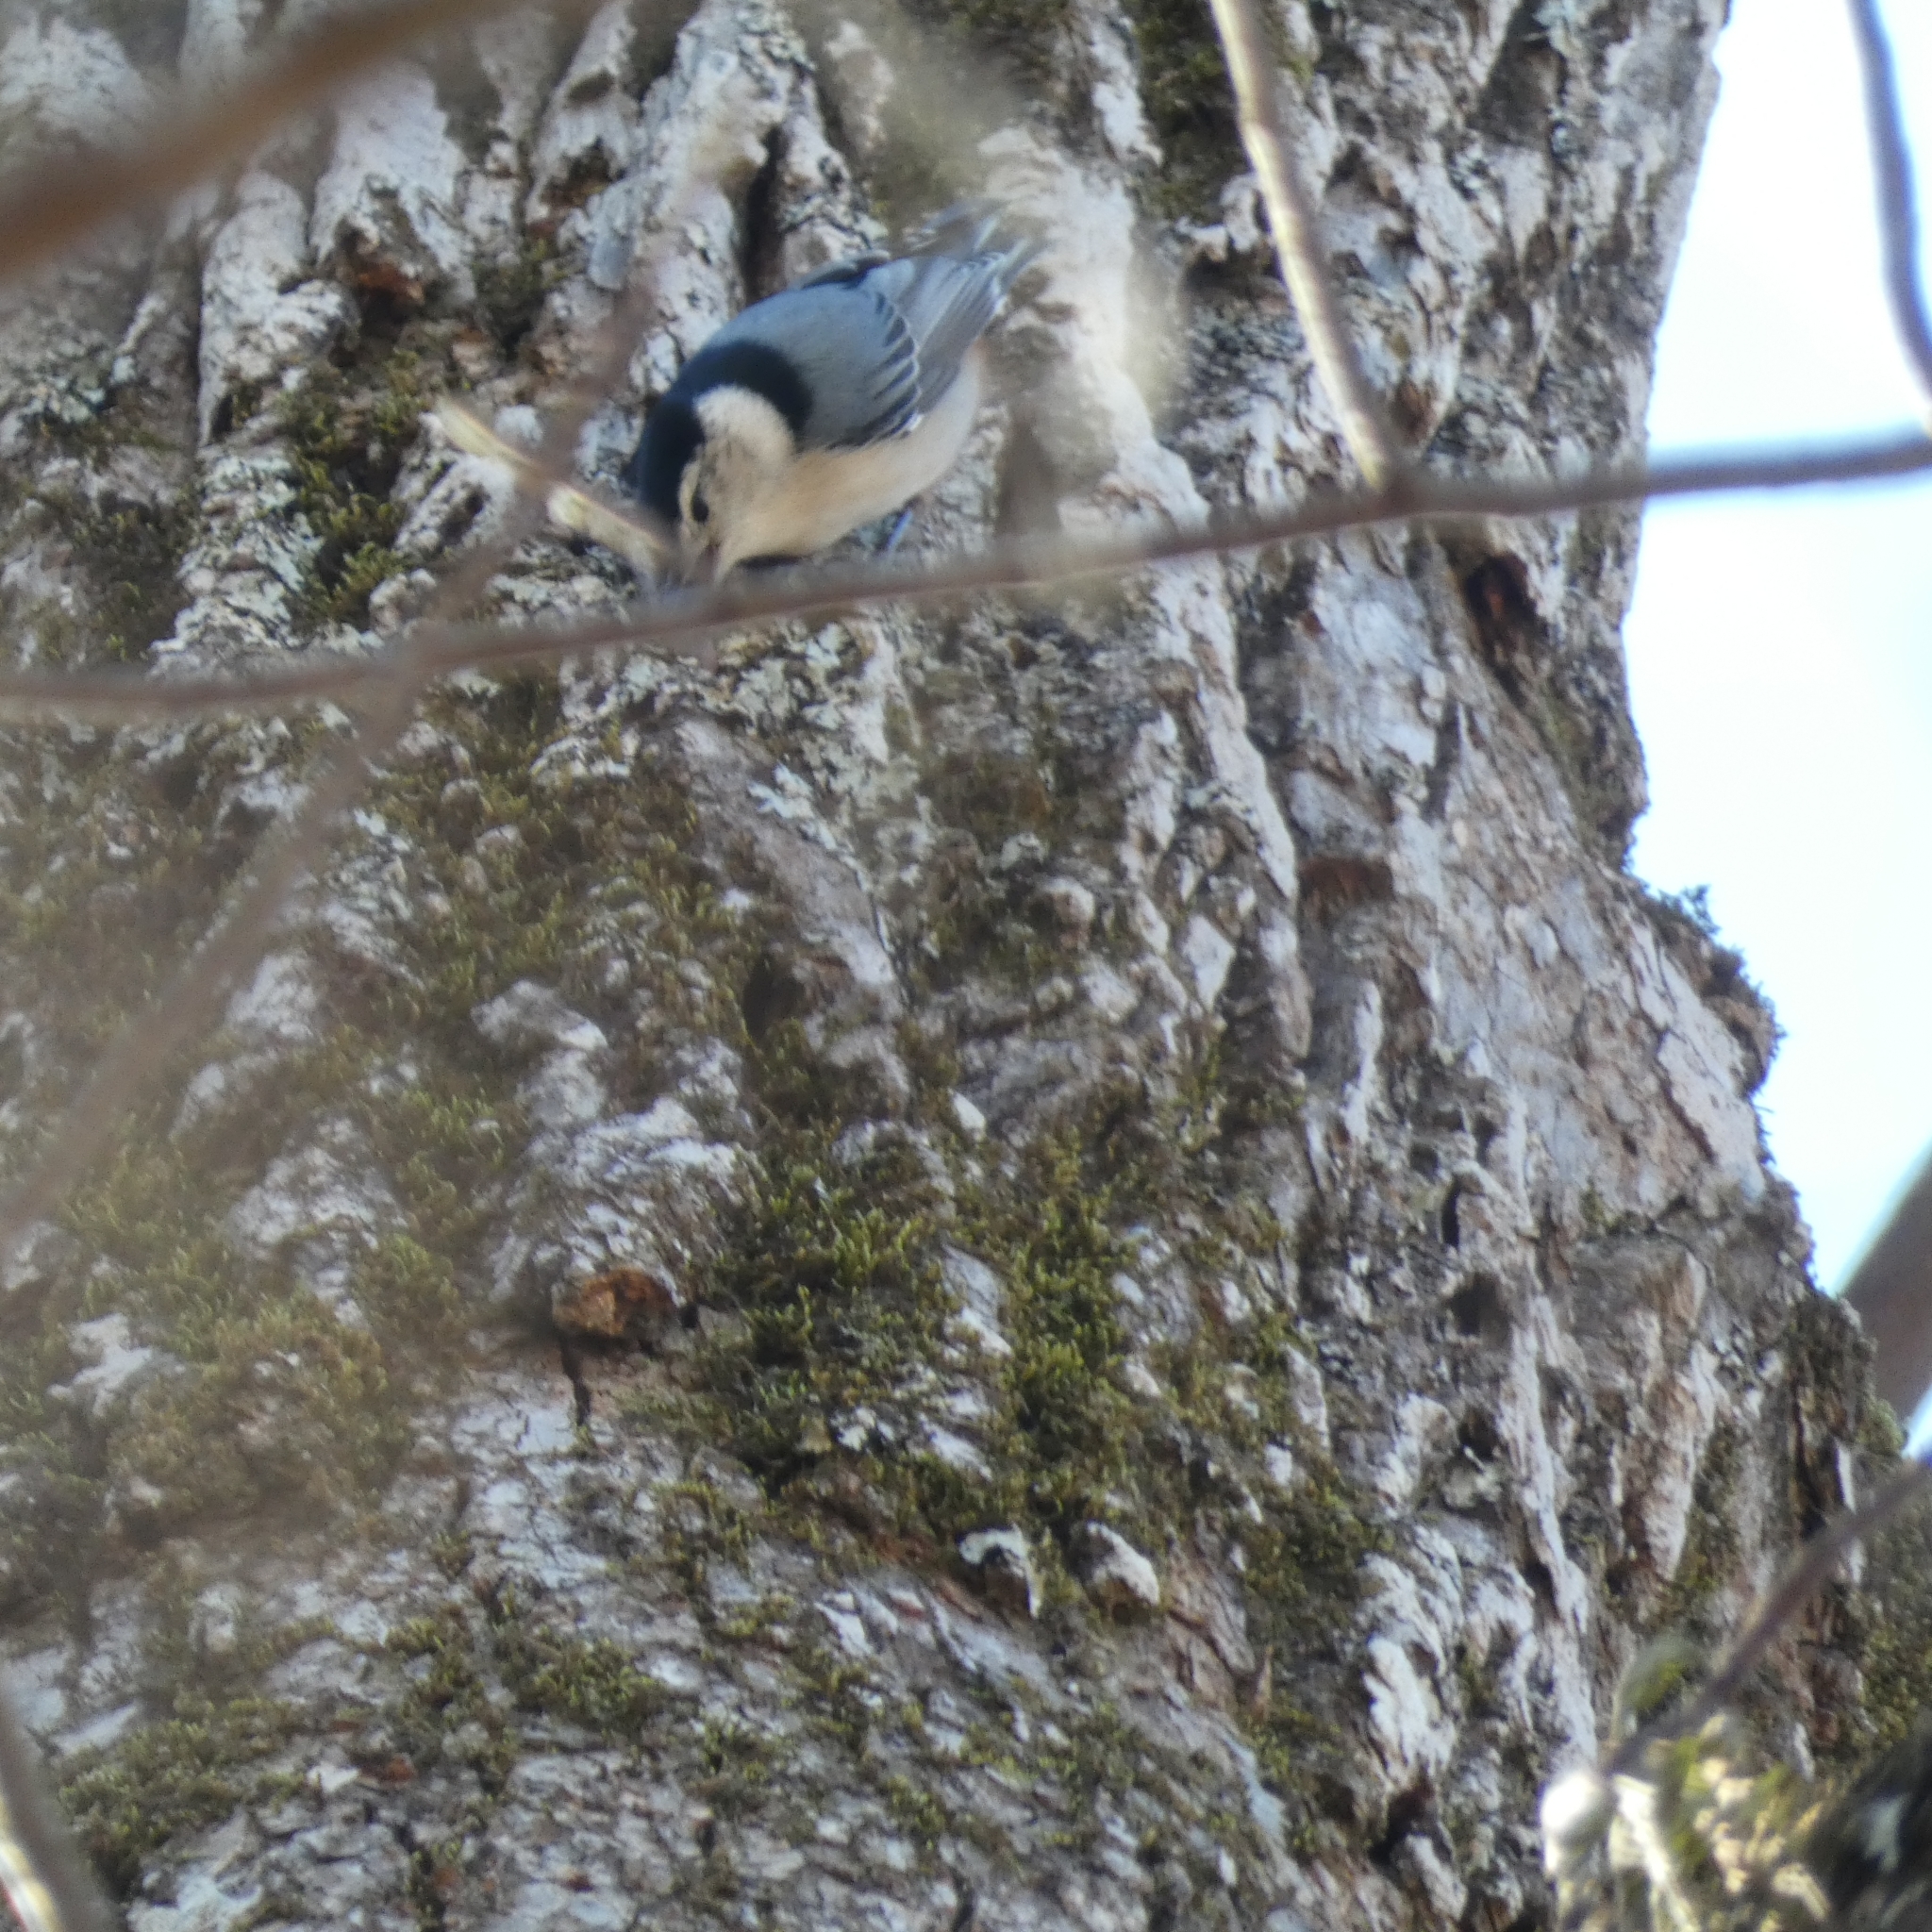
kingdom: Animalia
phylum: Chordata
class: Aves
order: Passeriformes
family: Sittidae
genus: Sitta
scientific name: Sitta carolinensis
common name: White-breasted nuthatch
